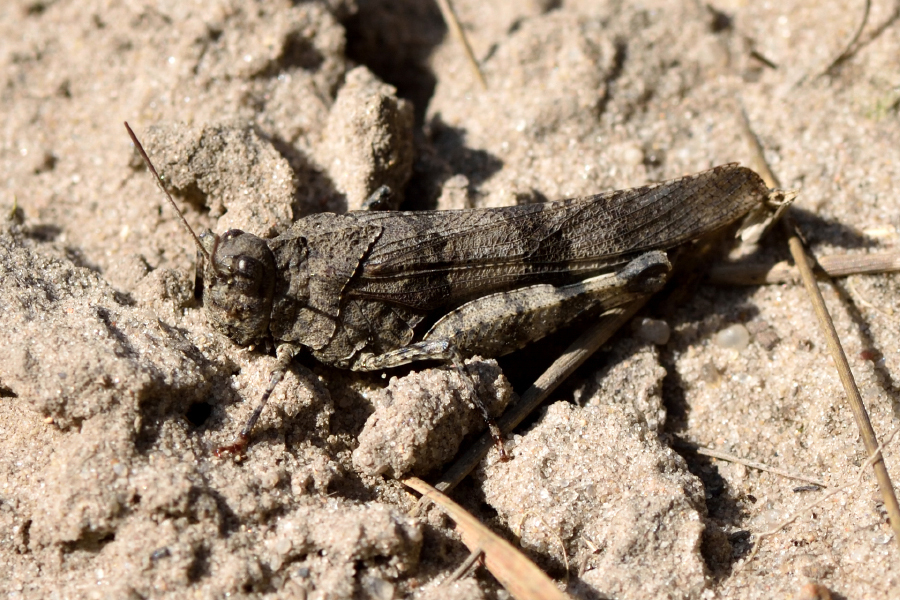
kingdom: Animalia
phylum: Arthropoda
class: Insecta
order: Orthoptera
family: Acrididae
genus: Oedipoda
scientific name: Oedipoda caerulescens
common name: Blue-winged grasshopper
